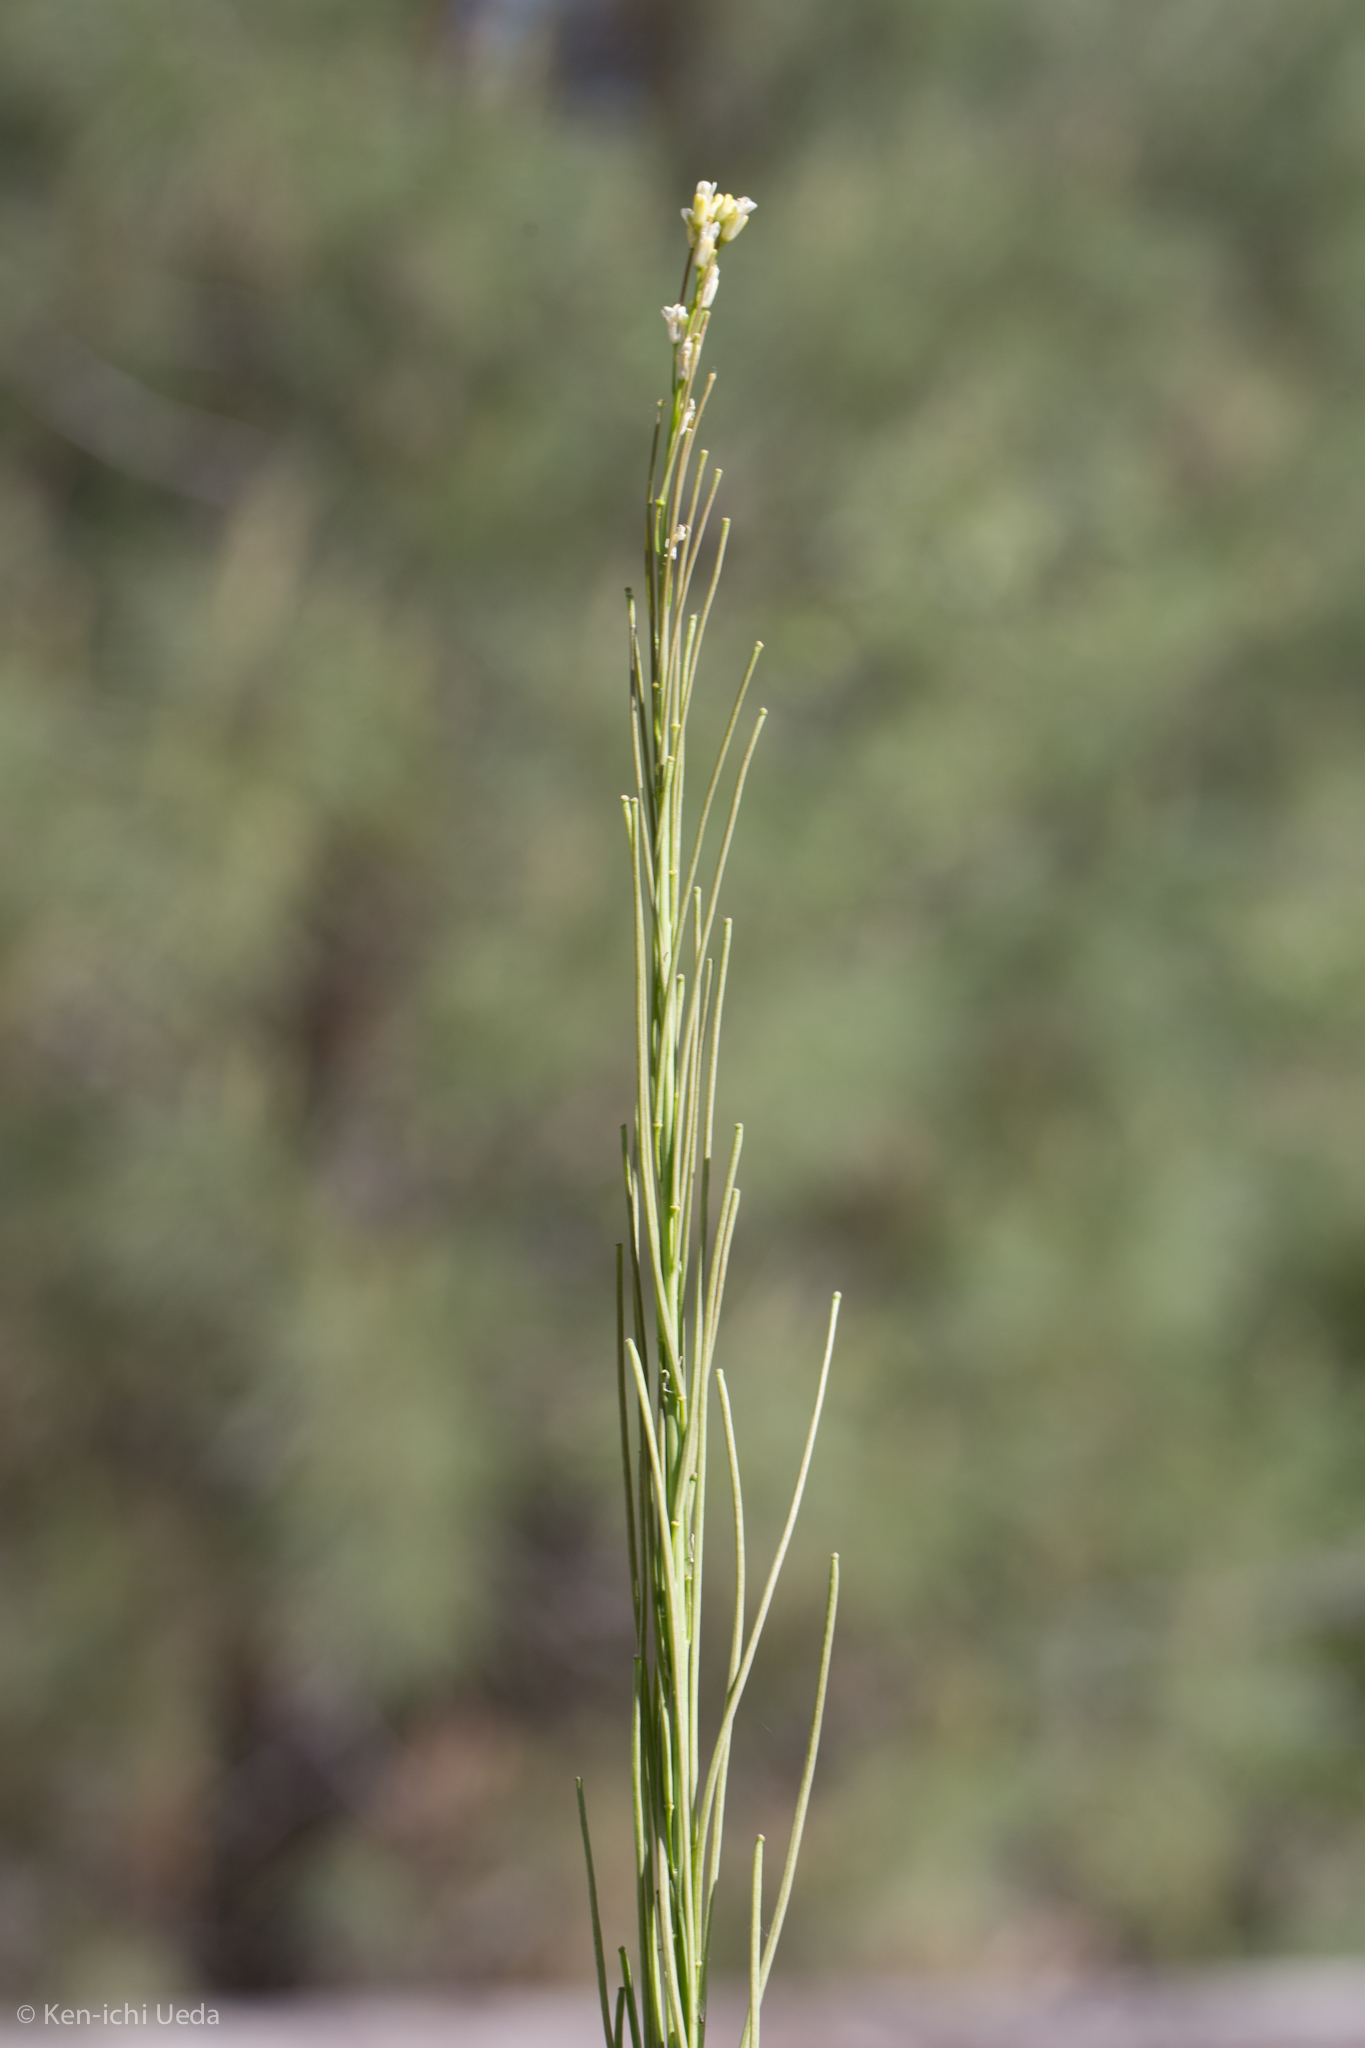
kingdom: Plantae
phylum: Tracheophyta
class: Magnoliopsida
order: Brassicales
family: Brassicaceae
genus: Turritis
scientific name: Turritis glabra
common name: Tower rockcress
